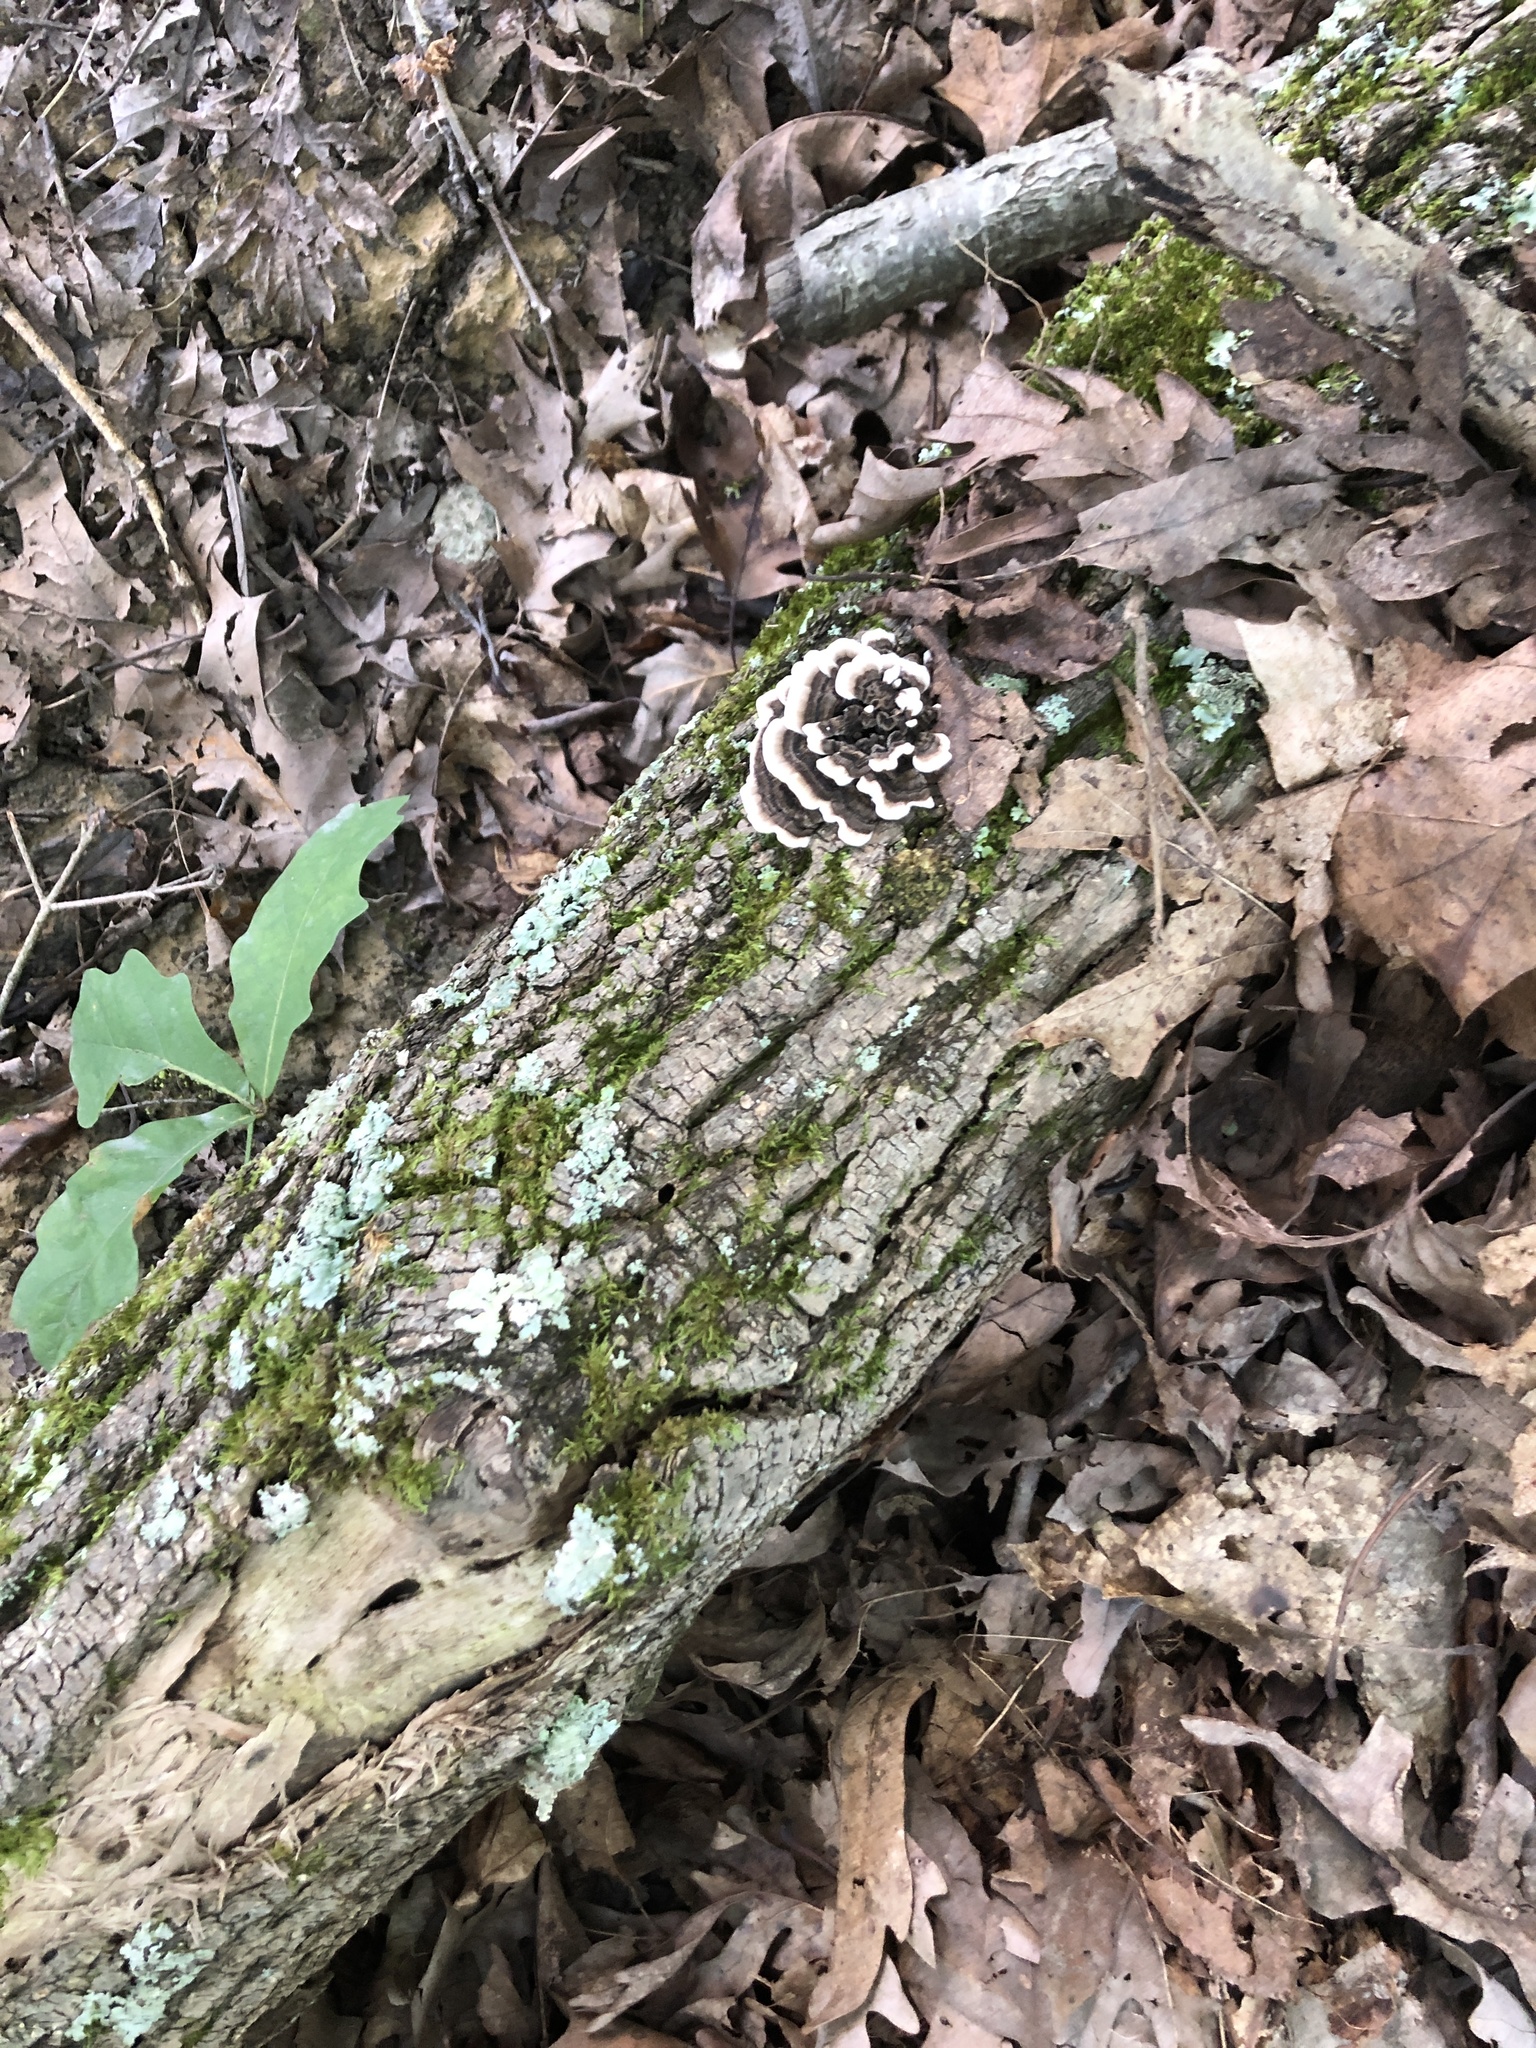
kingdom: Fungi
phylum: Basidiomycota
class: Agaricomycetes
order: Polyporales
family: Polyporaceae
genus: Trametes
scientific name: Trametes versicolor
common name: Turkeytail
